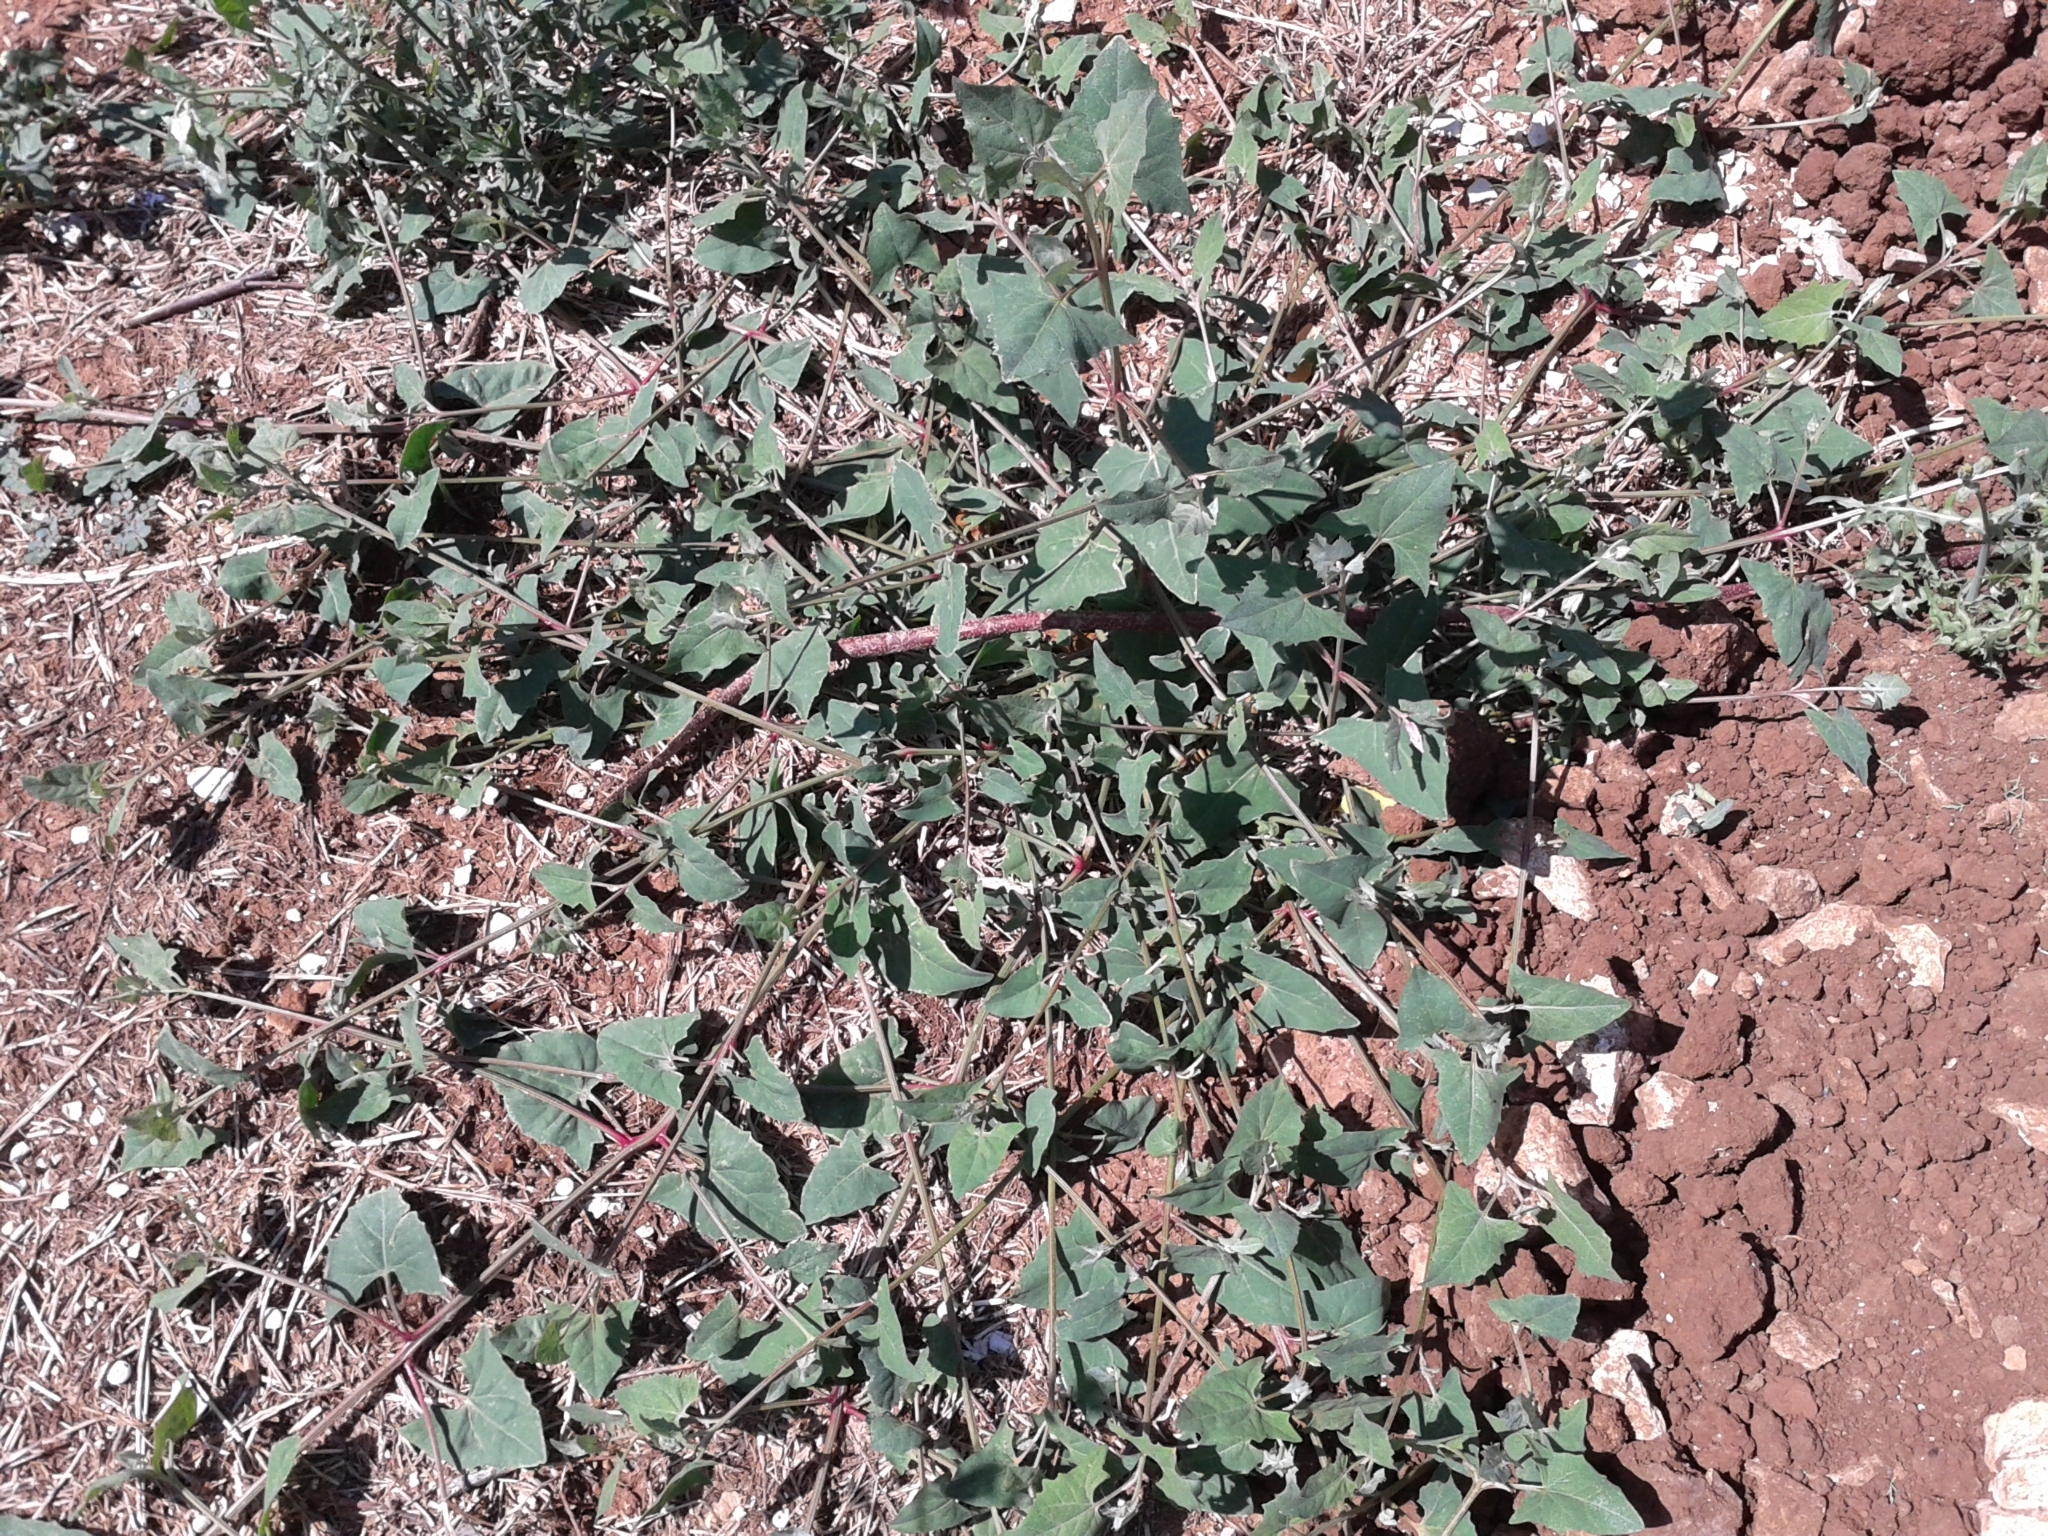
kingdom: Plantae
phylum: Tracheophyta
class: Magnoliopsida
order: Caryophyllales
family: Amaranthaceae
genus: Atriplex
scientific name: Atriplex prostrata
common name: Spear-leaved orache
